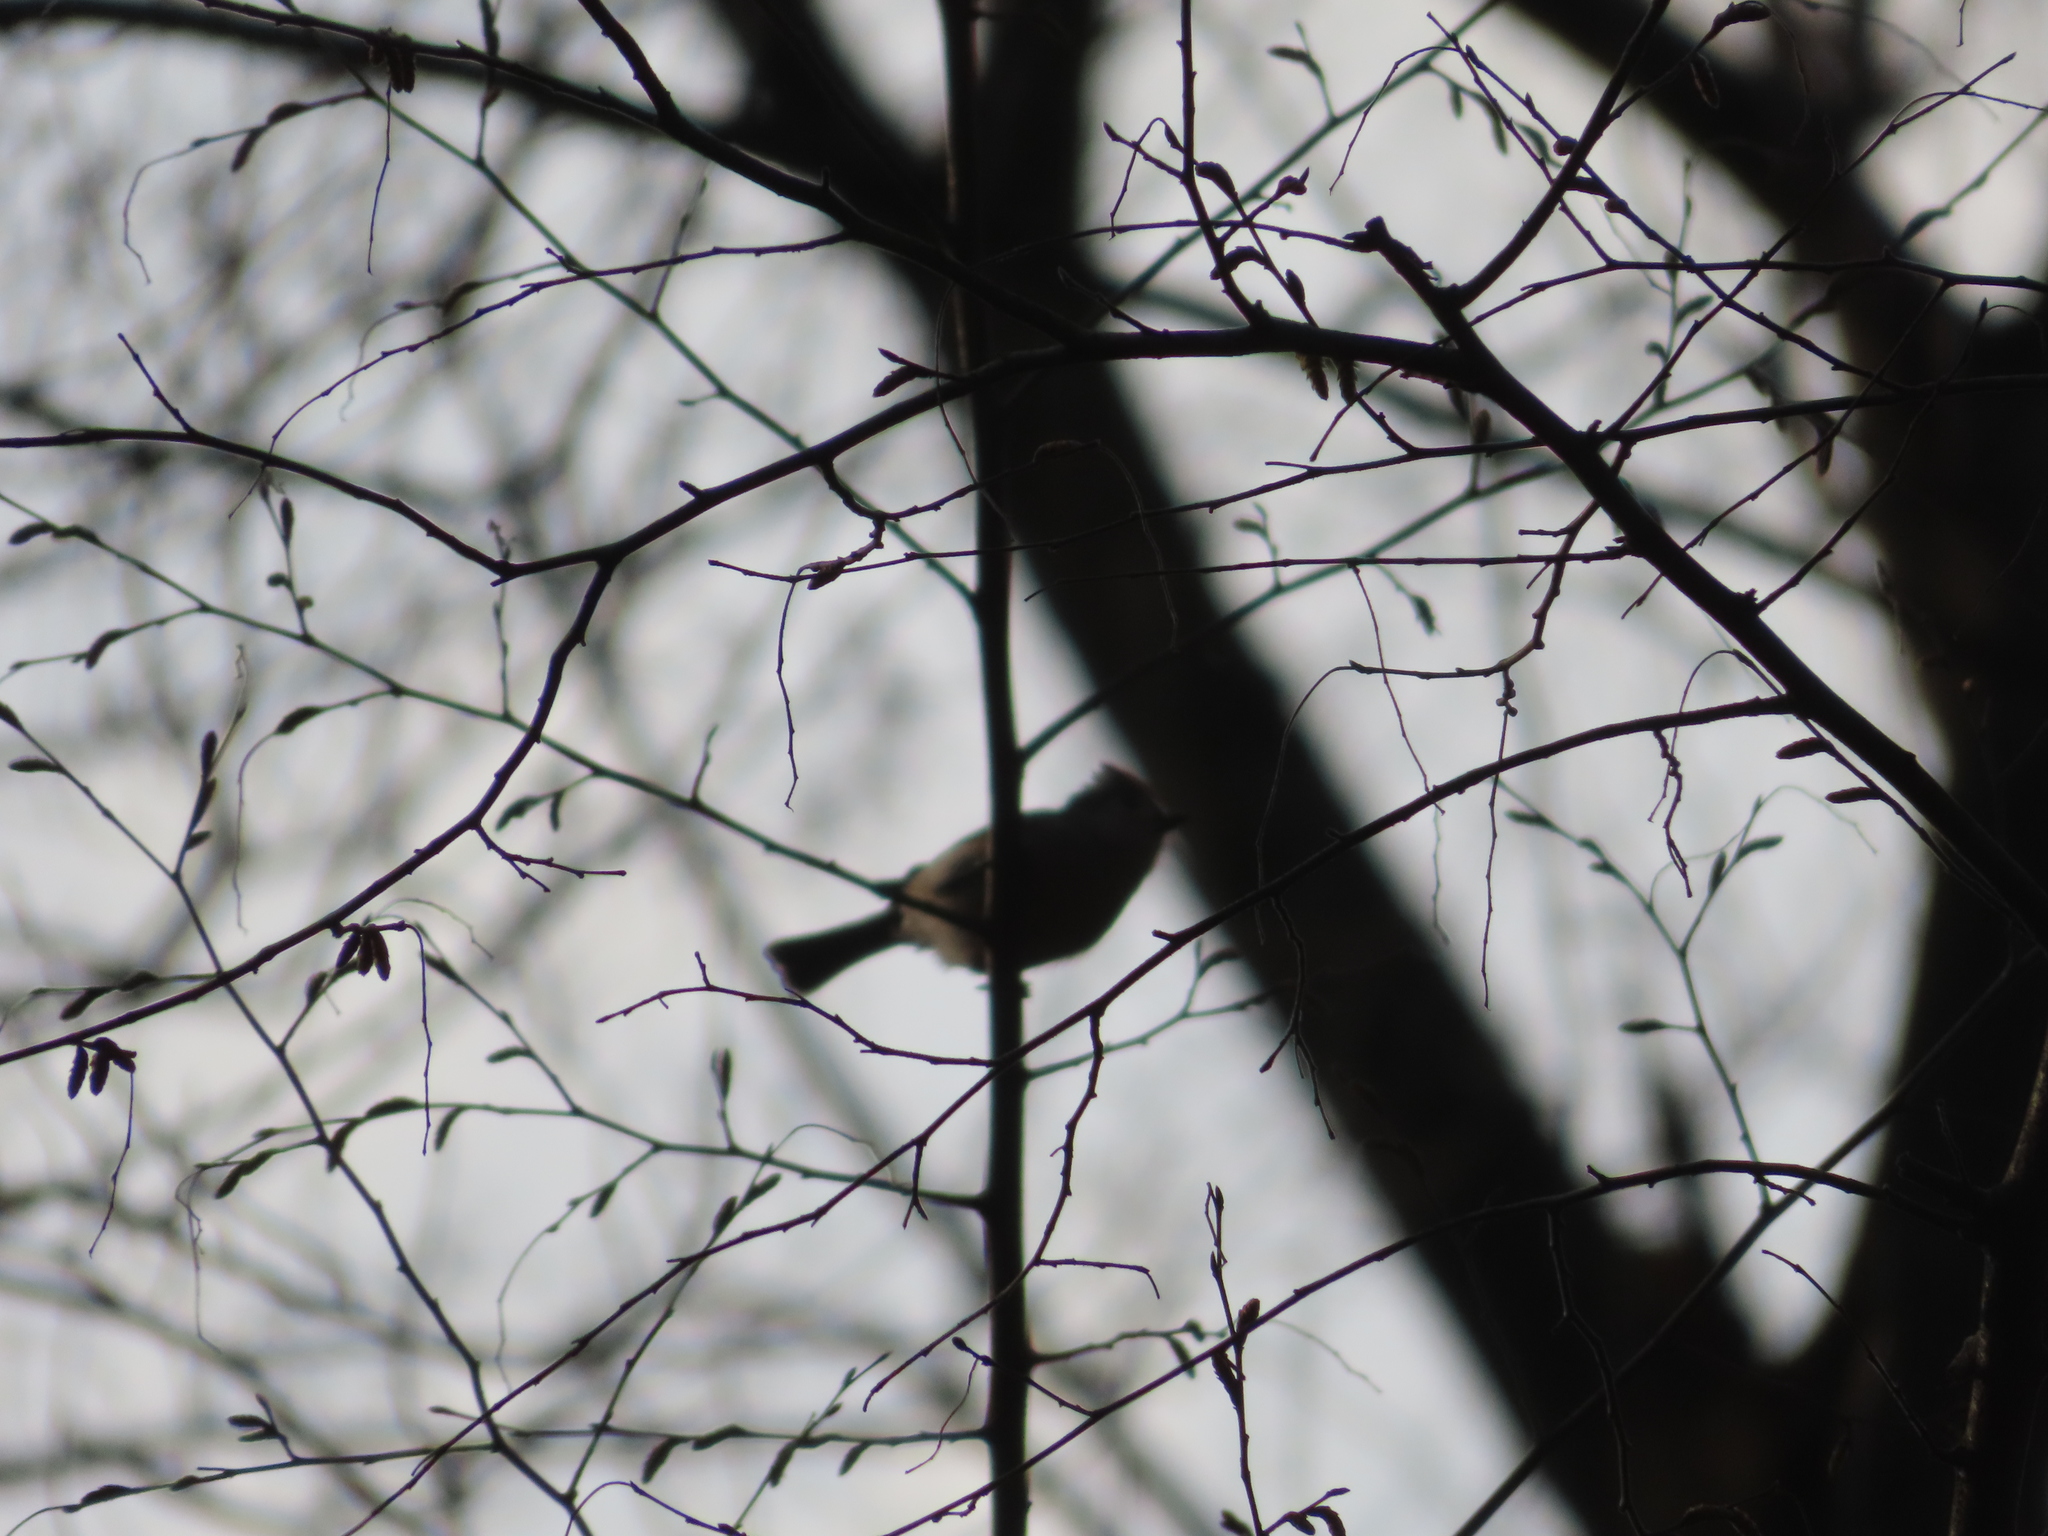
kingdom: Animalia
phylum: Chordata
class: Aves
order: Passeriformes
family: Paridae
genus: Baeolophus
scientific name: Baeolophus bicolor
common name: Tufted titmouse
